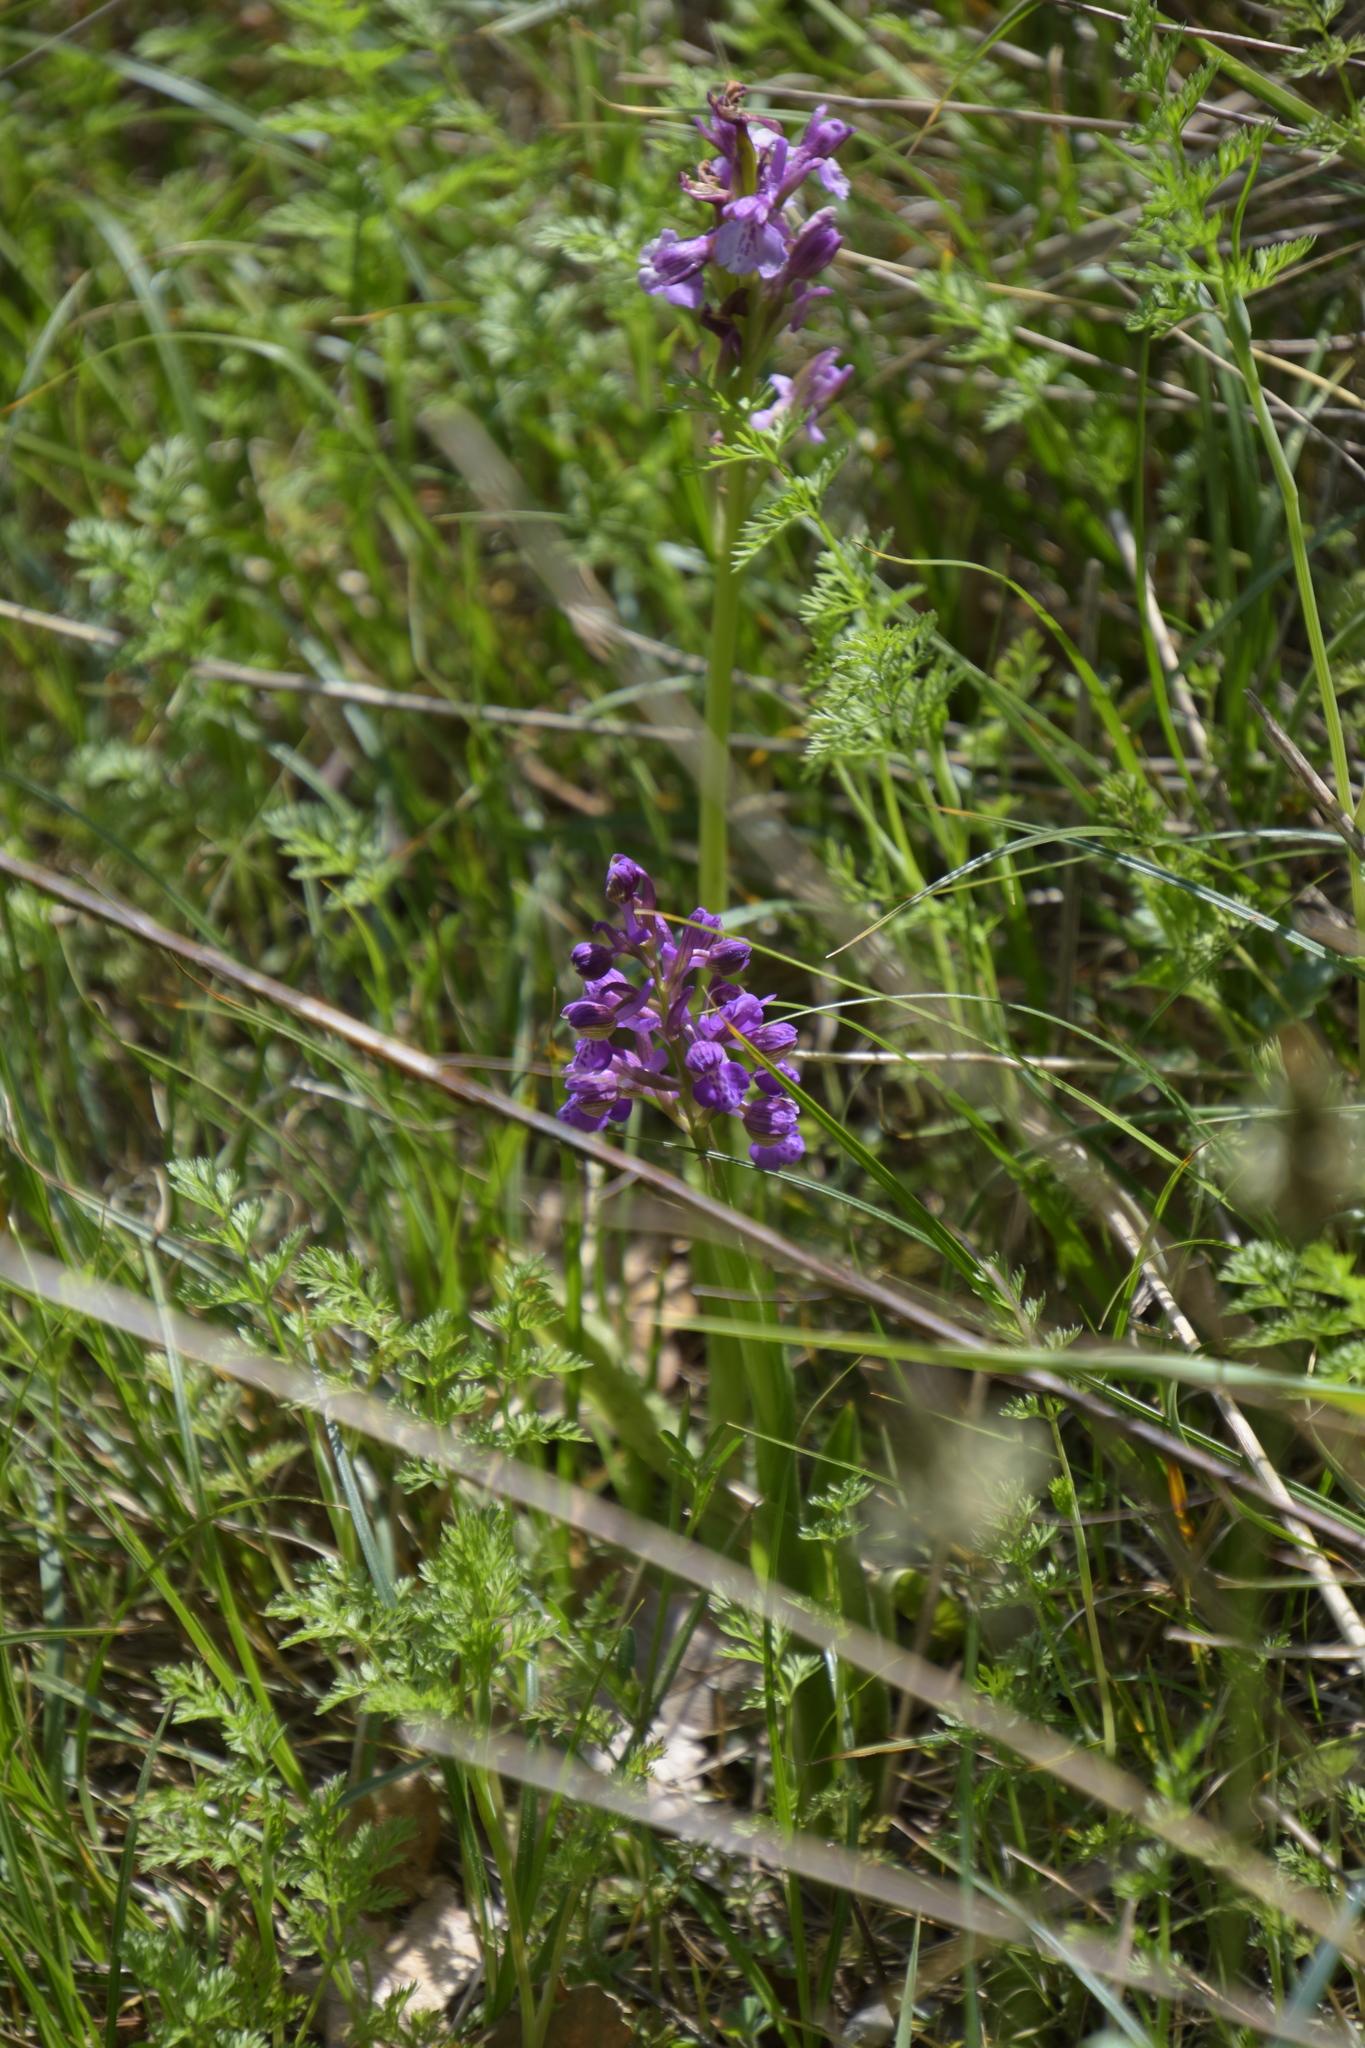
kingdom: Plantae
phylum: Tracheophyta
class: Liliopsida
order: Asparagales
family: Orchidaceae
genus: Anacamptis
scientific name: Anacamptis morio
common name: Green-winged orchid
